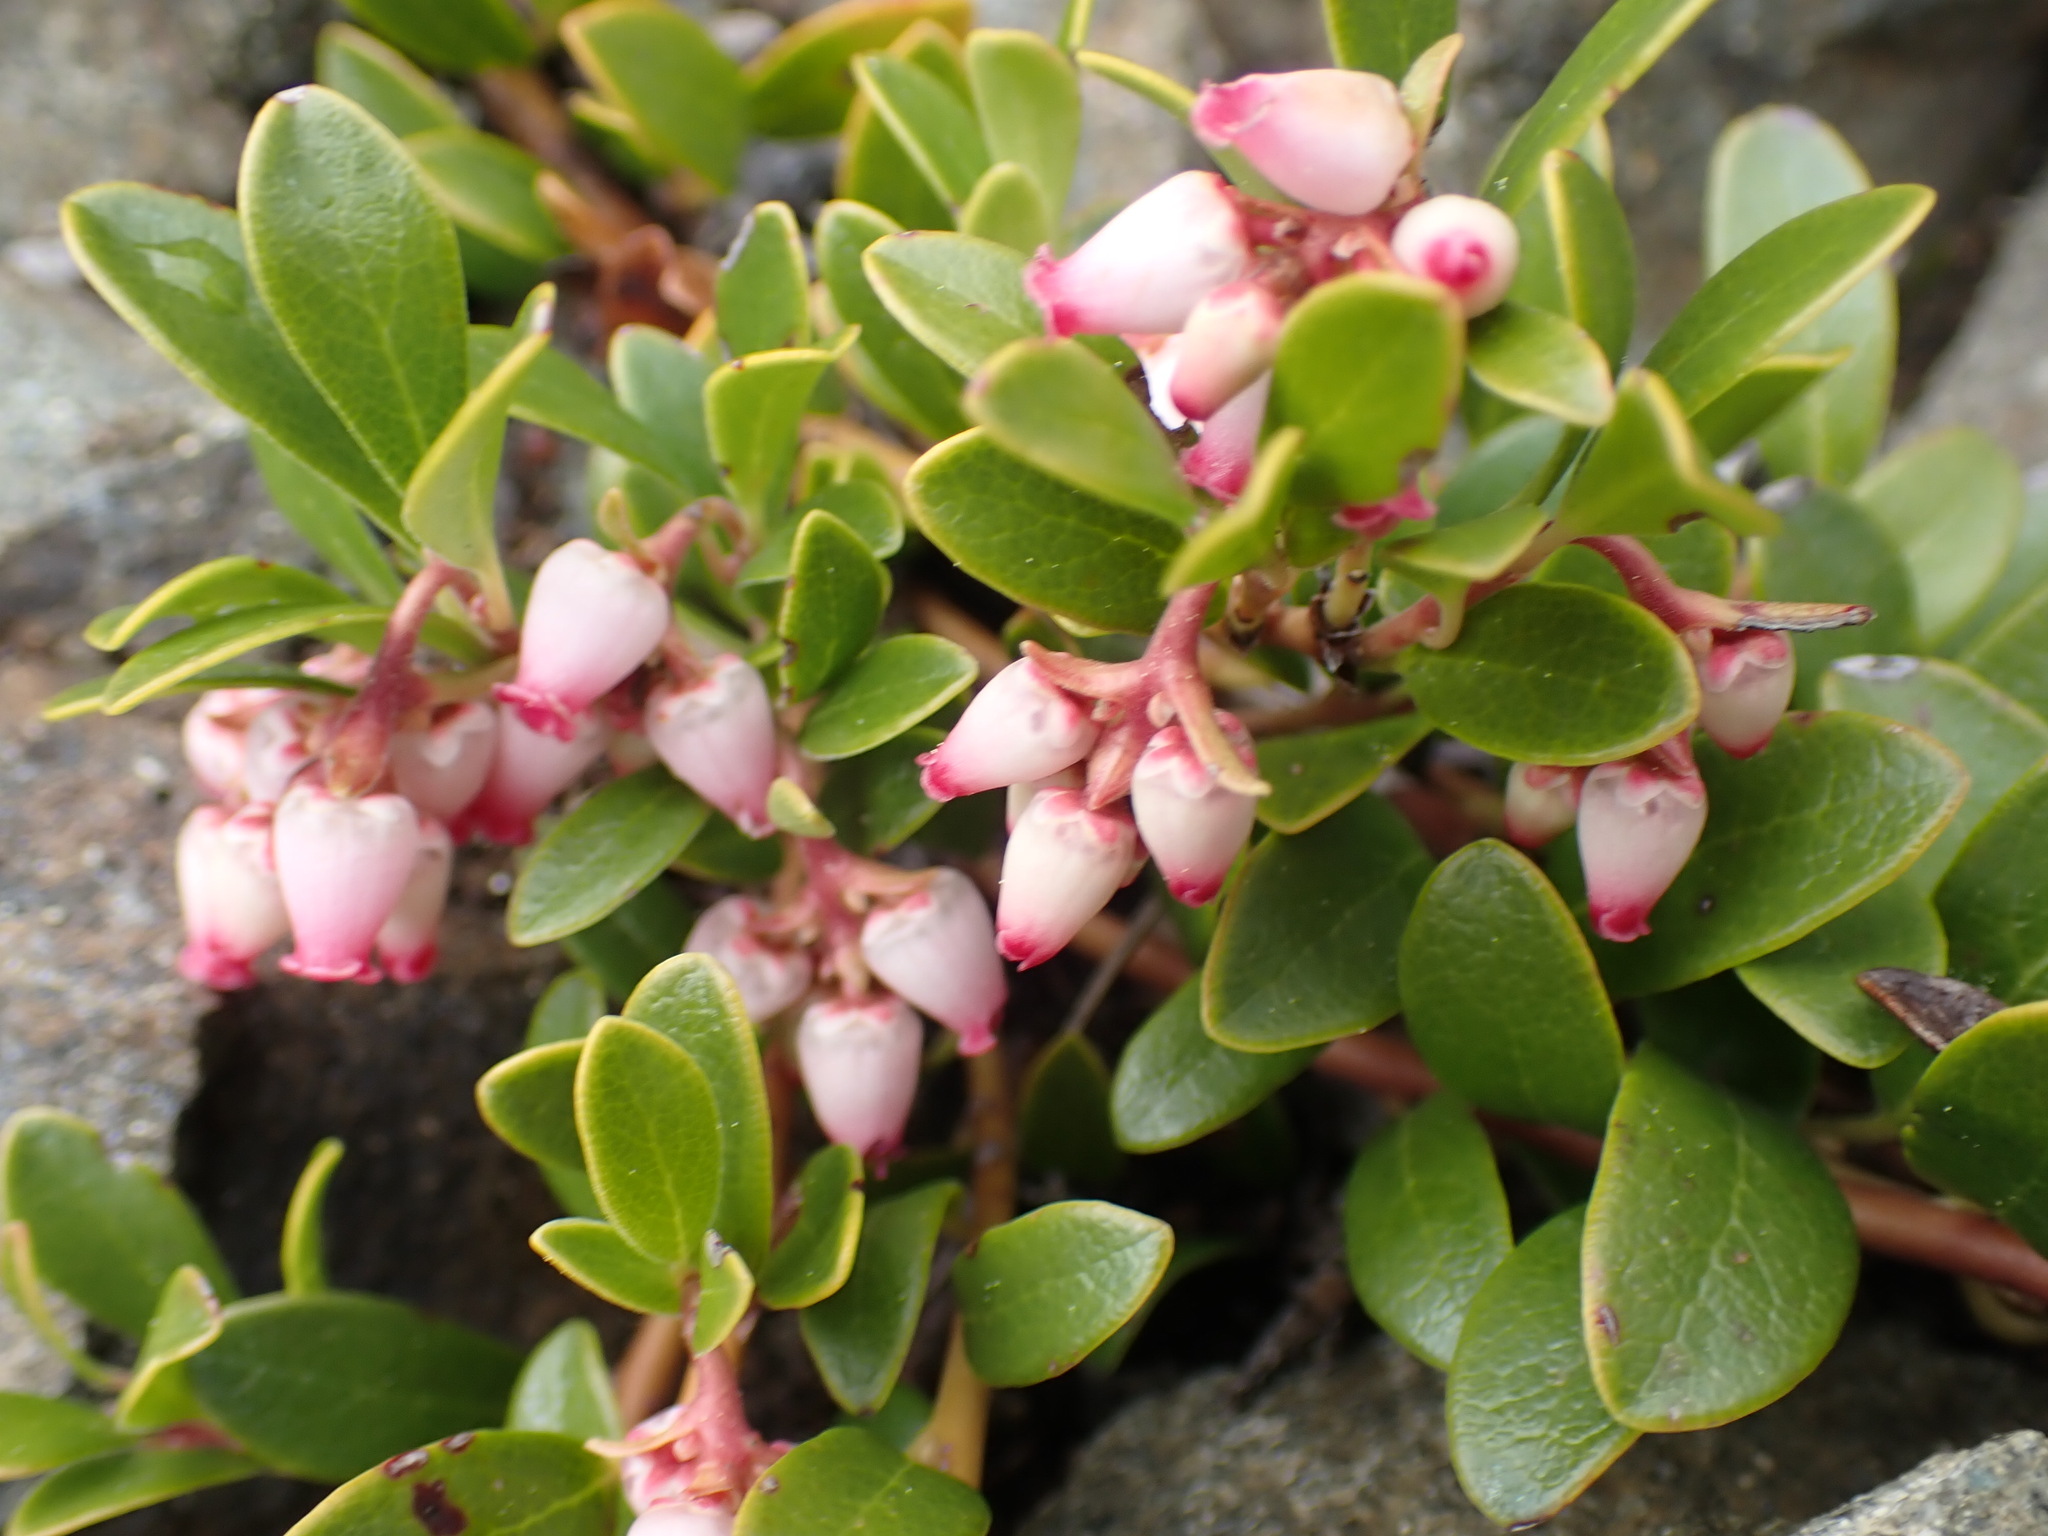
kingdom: Plantae
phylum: Tracheophyta
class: Magnoliopsida
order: Ericales
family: Ericaceae
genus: Arctostaphylos
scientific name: Arctostaphylos uva-ursi
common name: Bearberry
